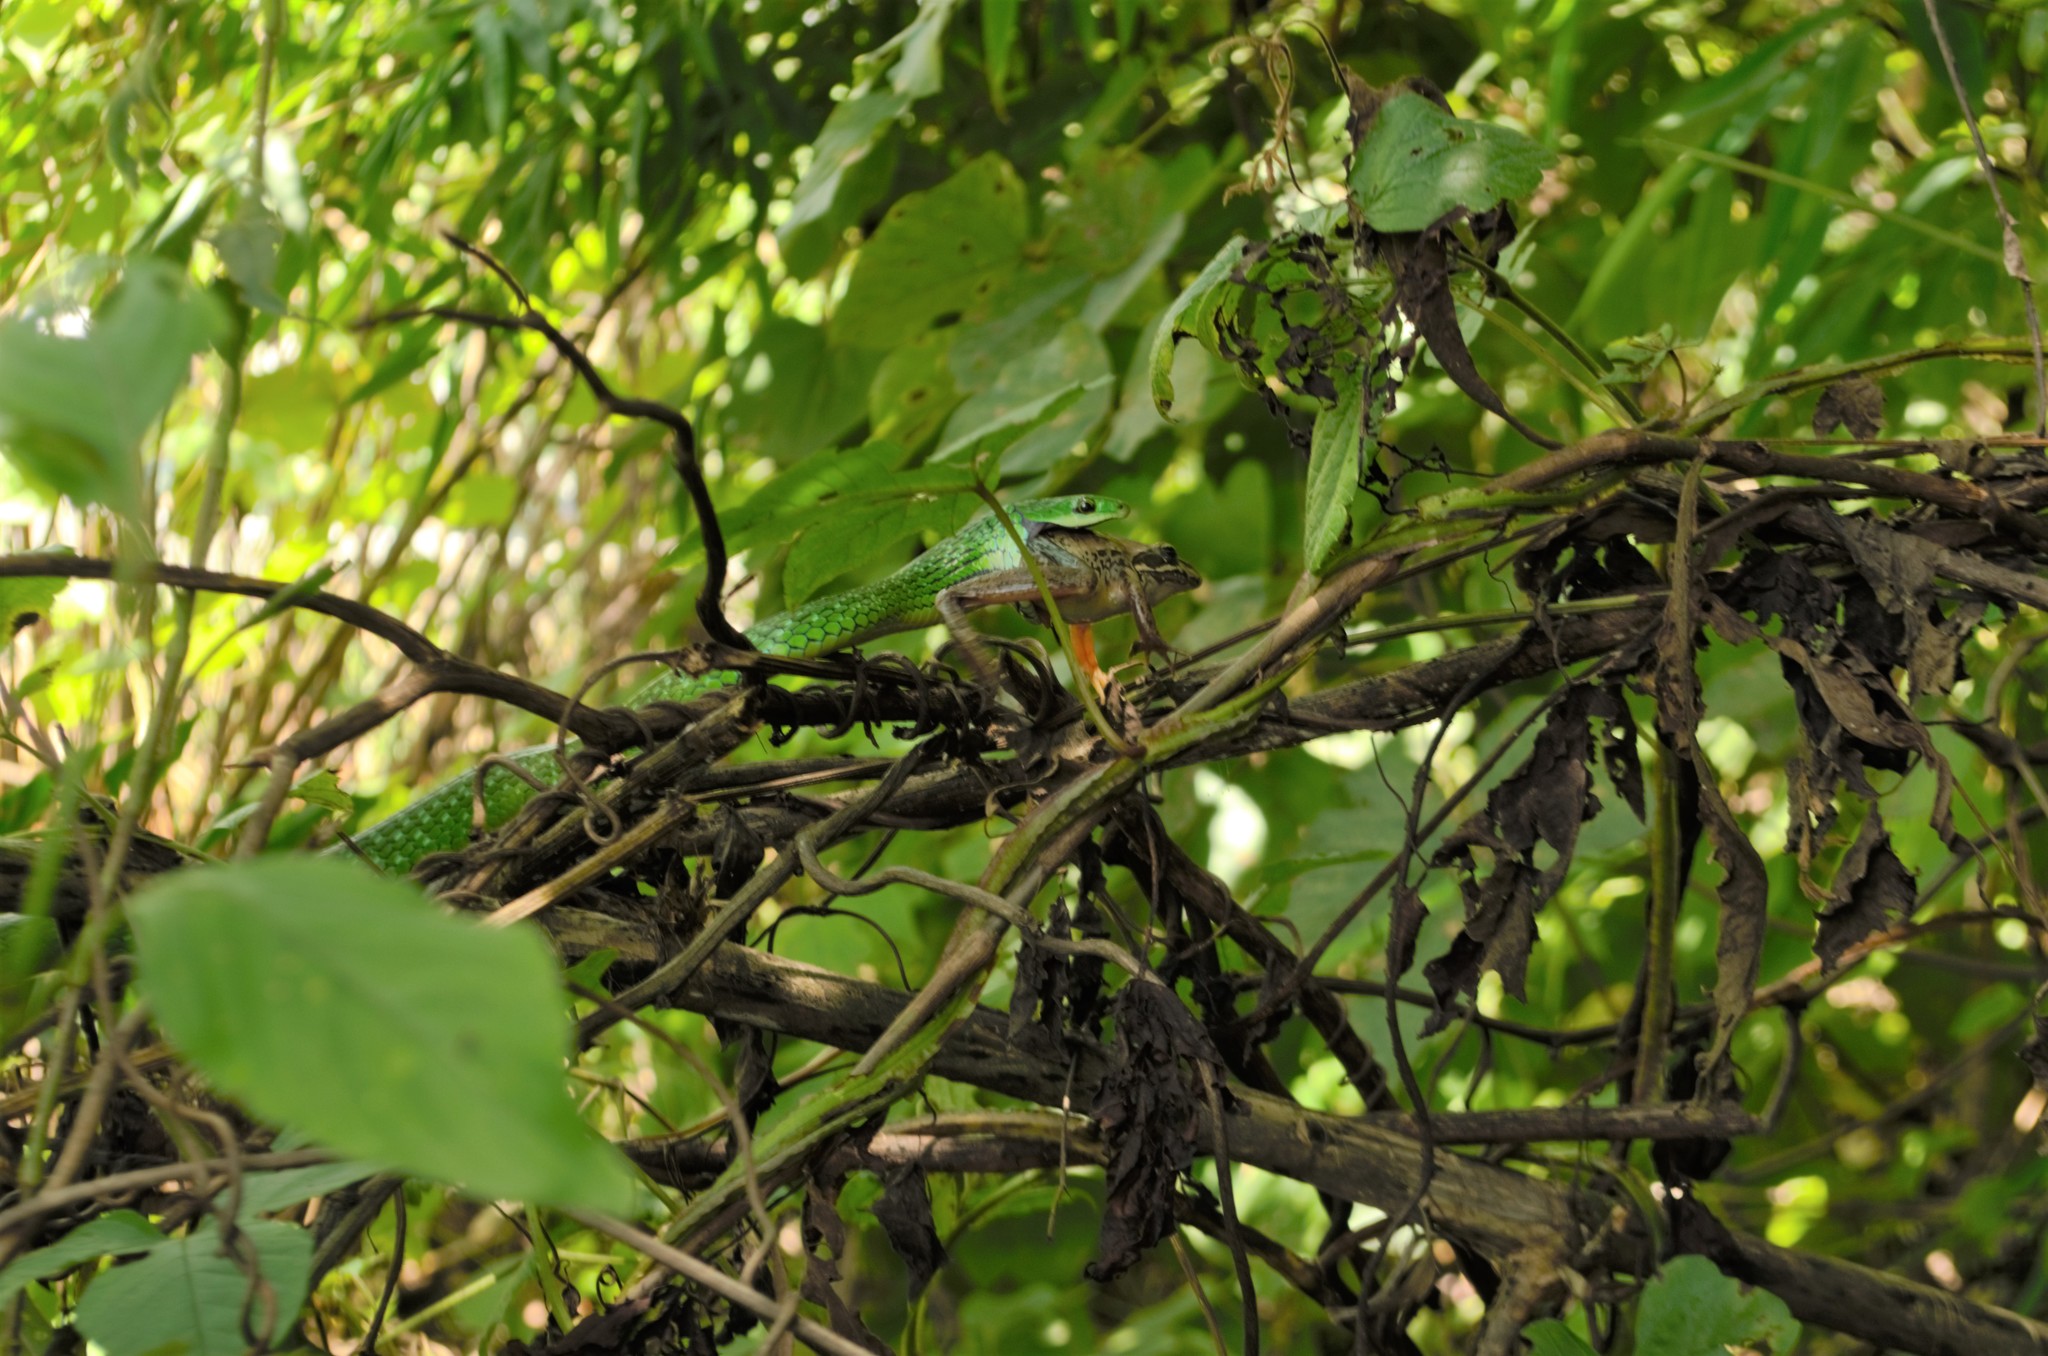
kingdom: Animalia
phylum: Chordata
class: Amphibia
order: Anura
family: Pyxicephalidae
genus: Amietia
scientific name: Amietia delalandii
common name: Delalande's river frog
